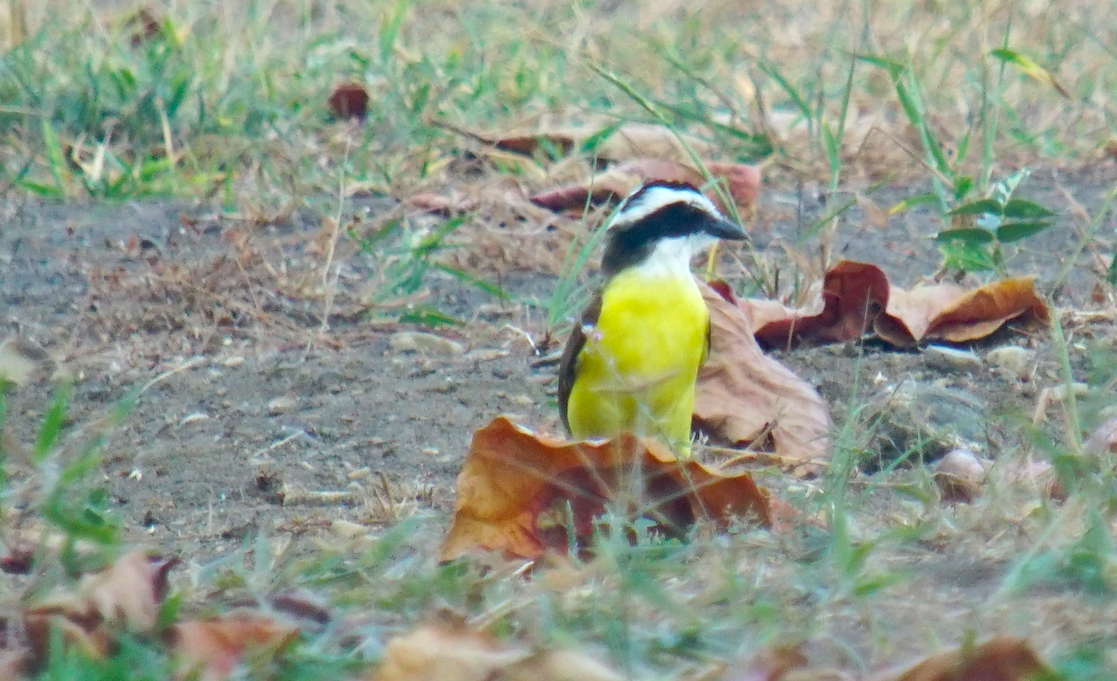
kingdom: Animalia
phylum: Chordata
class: Aves
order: Passeriformes
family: Tyrannidae
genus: Pitangus
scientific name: Pitangus sulphuratus
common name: Great kiskadee
